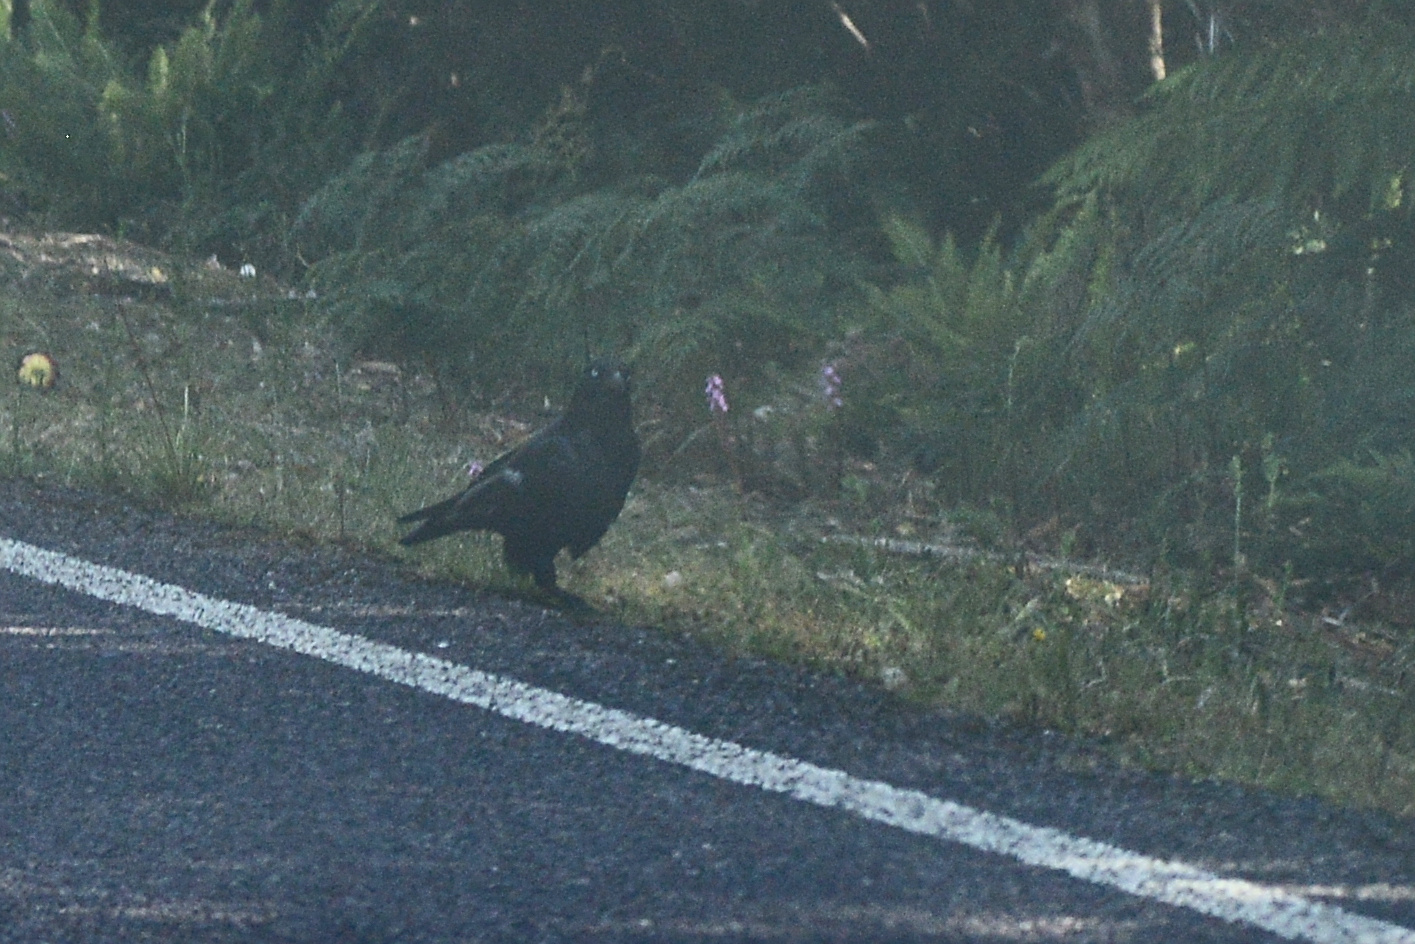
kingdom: Animalia
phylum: Chordata
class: Aves
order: Passeriformes
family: Cracticidae
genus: Strepera
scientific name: Strepera fuliginosa
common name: Black currawong
